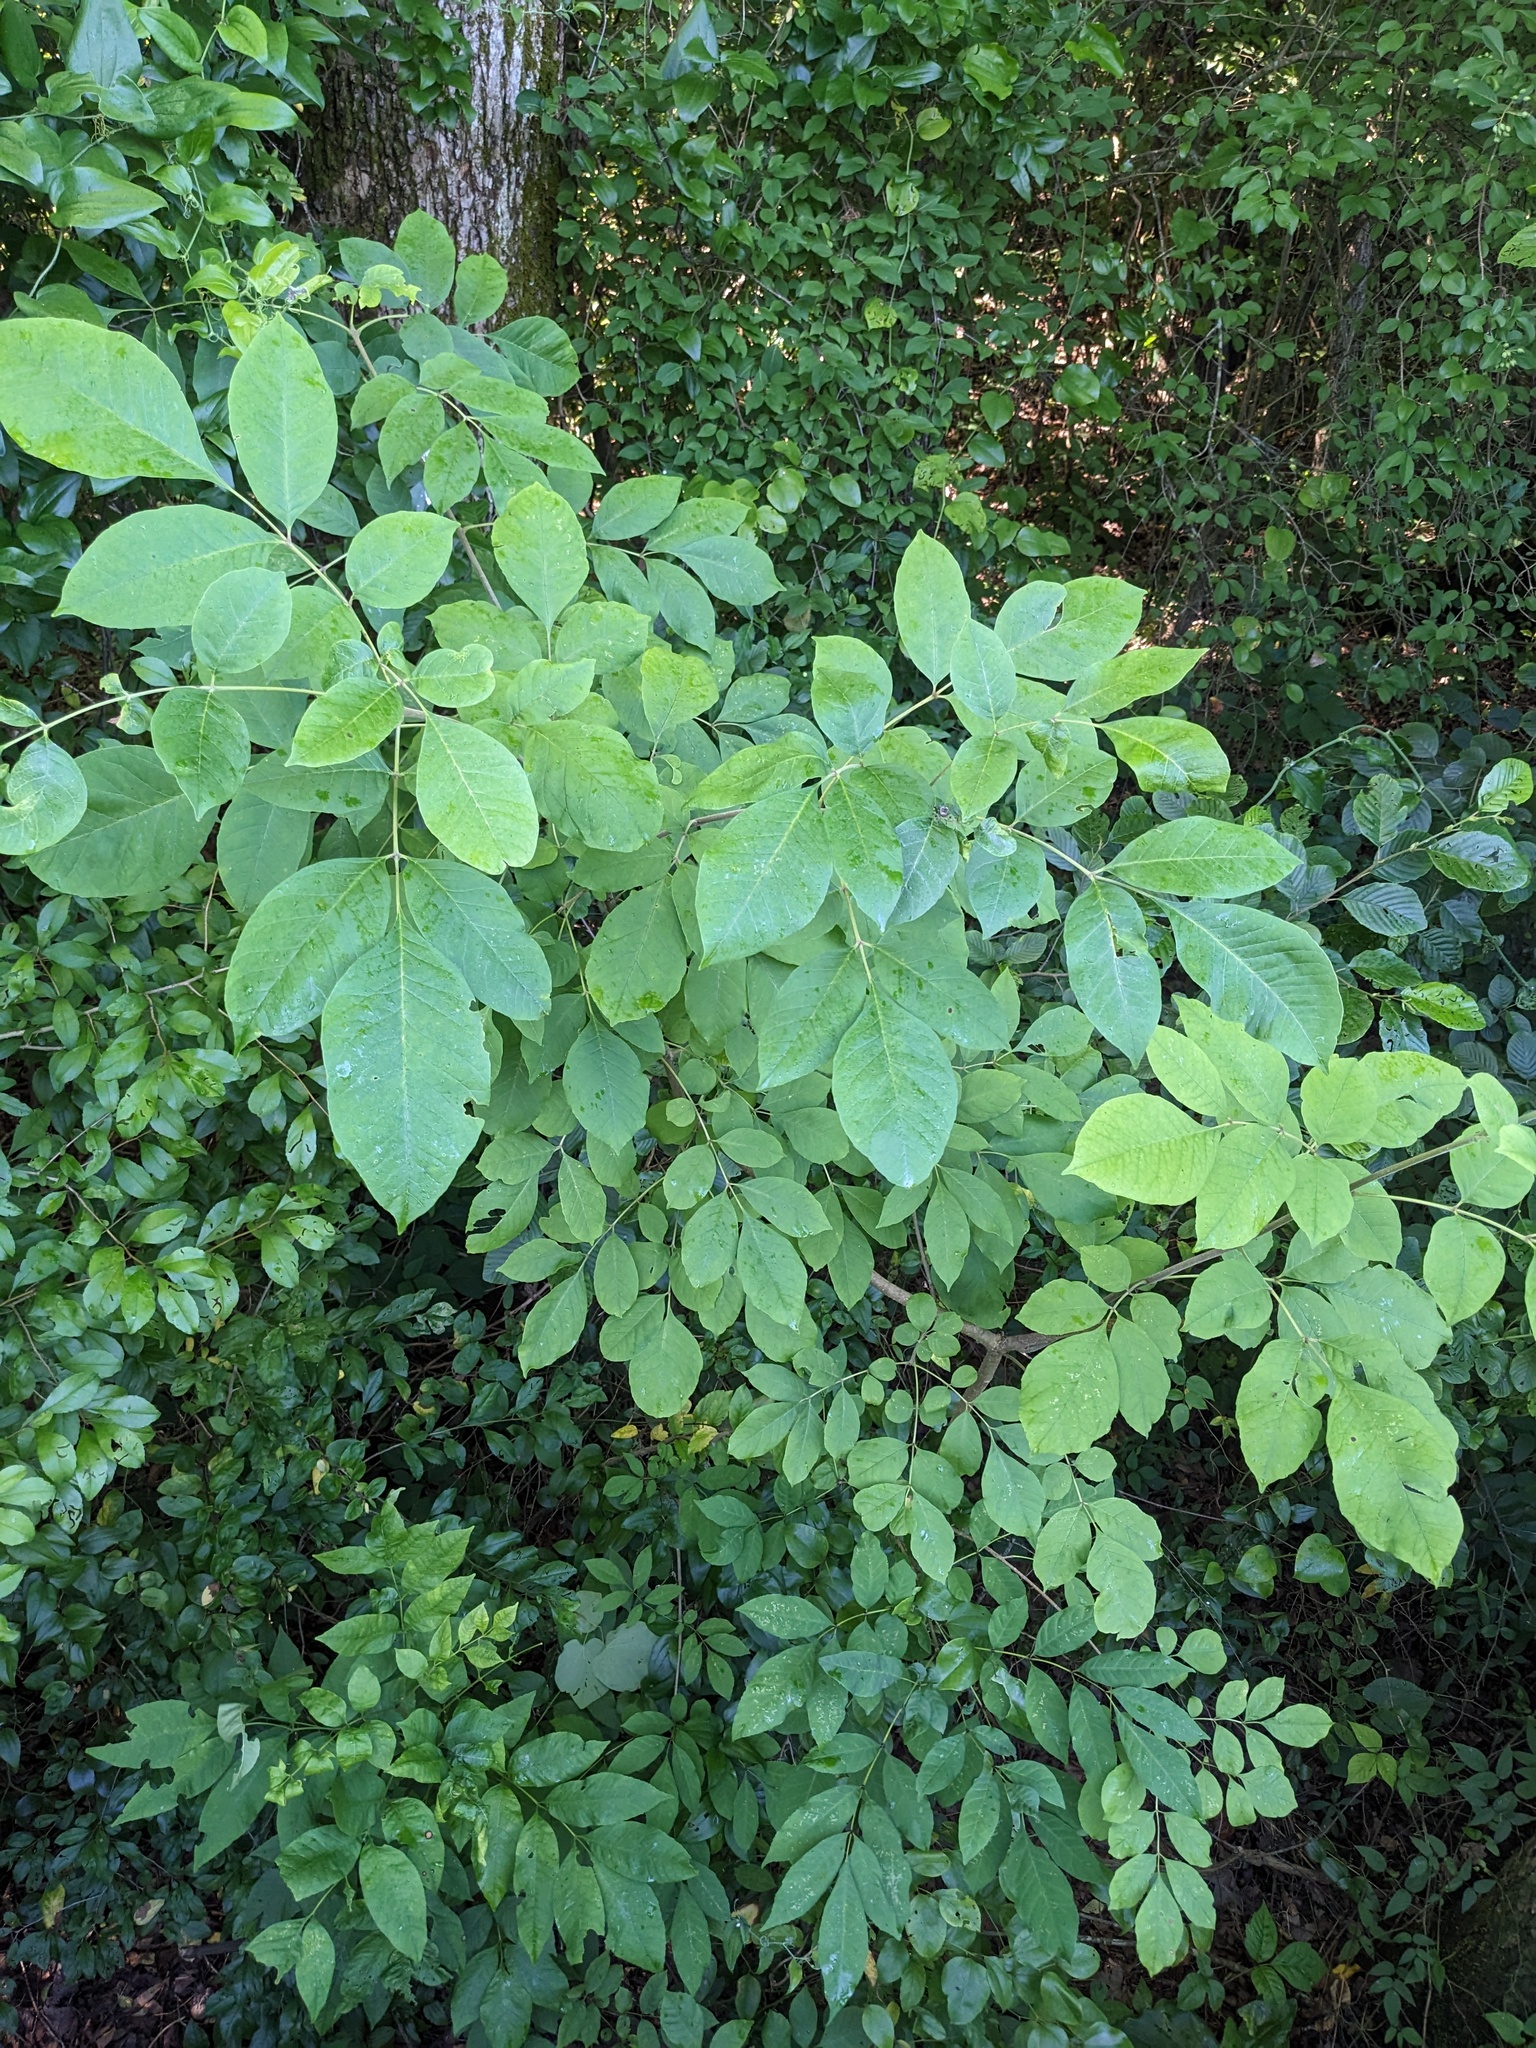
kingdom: Plantae
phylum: Tracheophyta
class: Magnoliopsida
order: Lamiales
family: Oleaceae
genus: Fraxinus
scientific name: Fraxinus pennsylvanica
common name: Green ash
